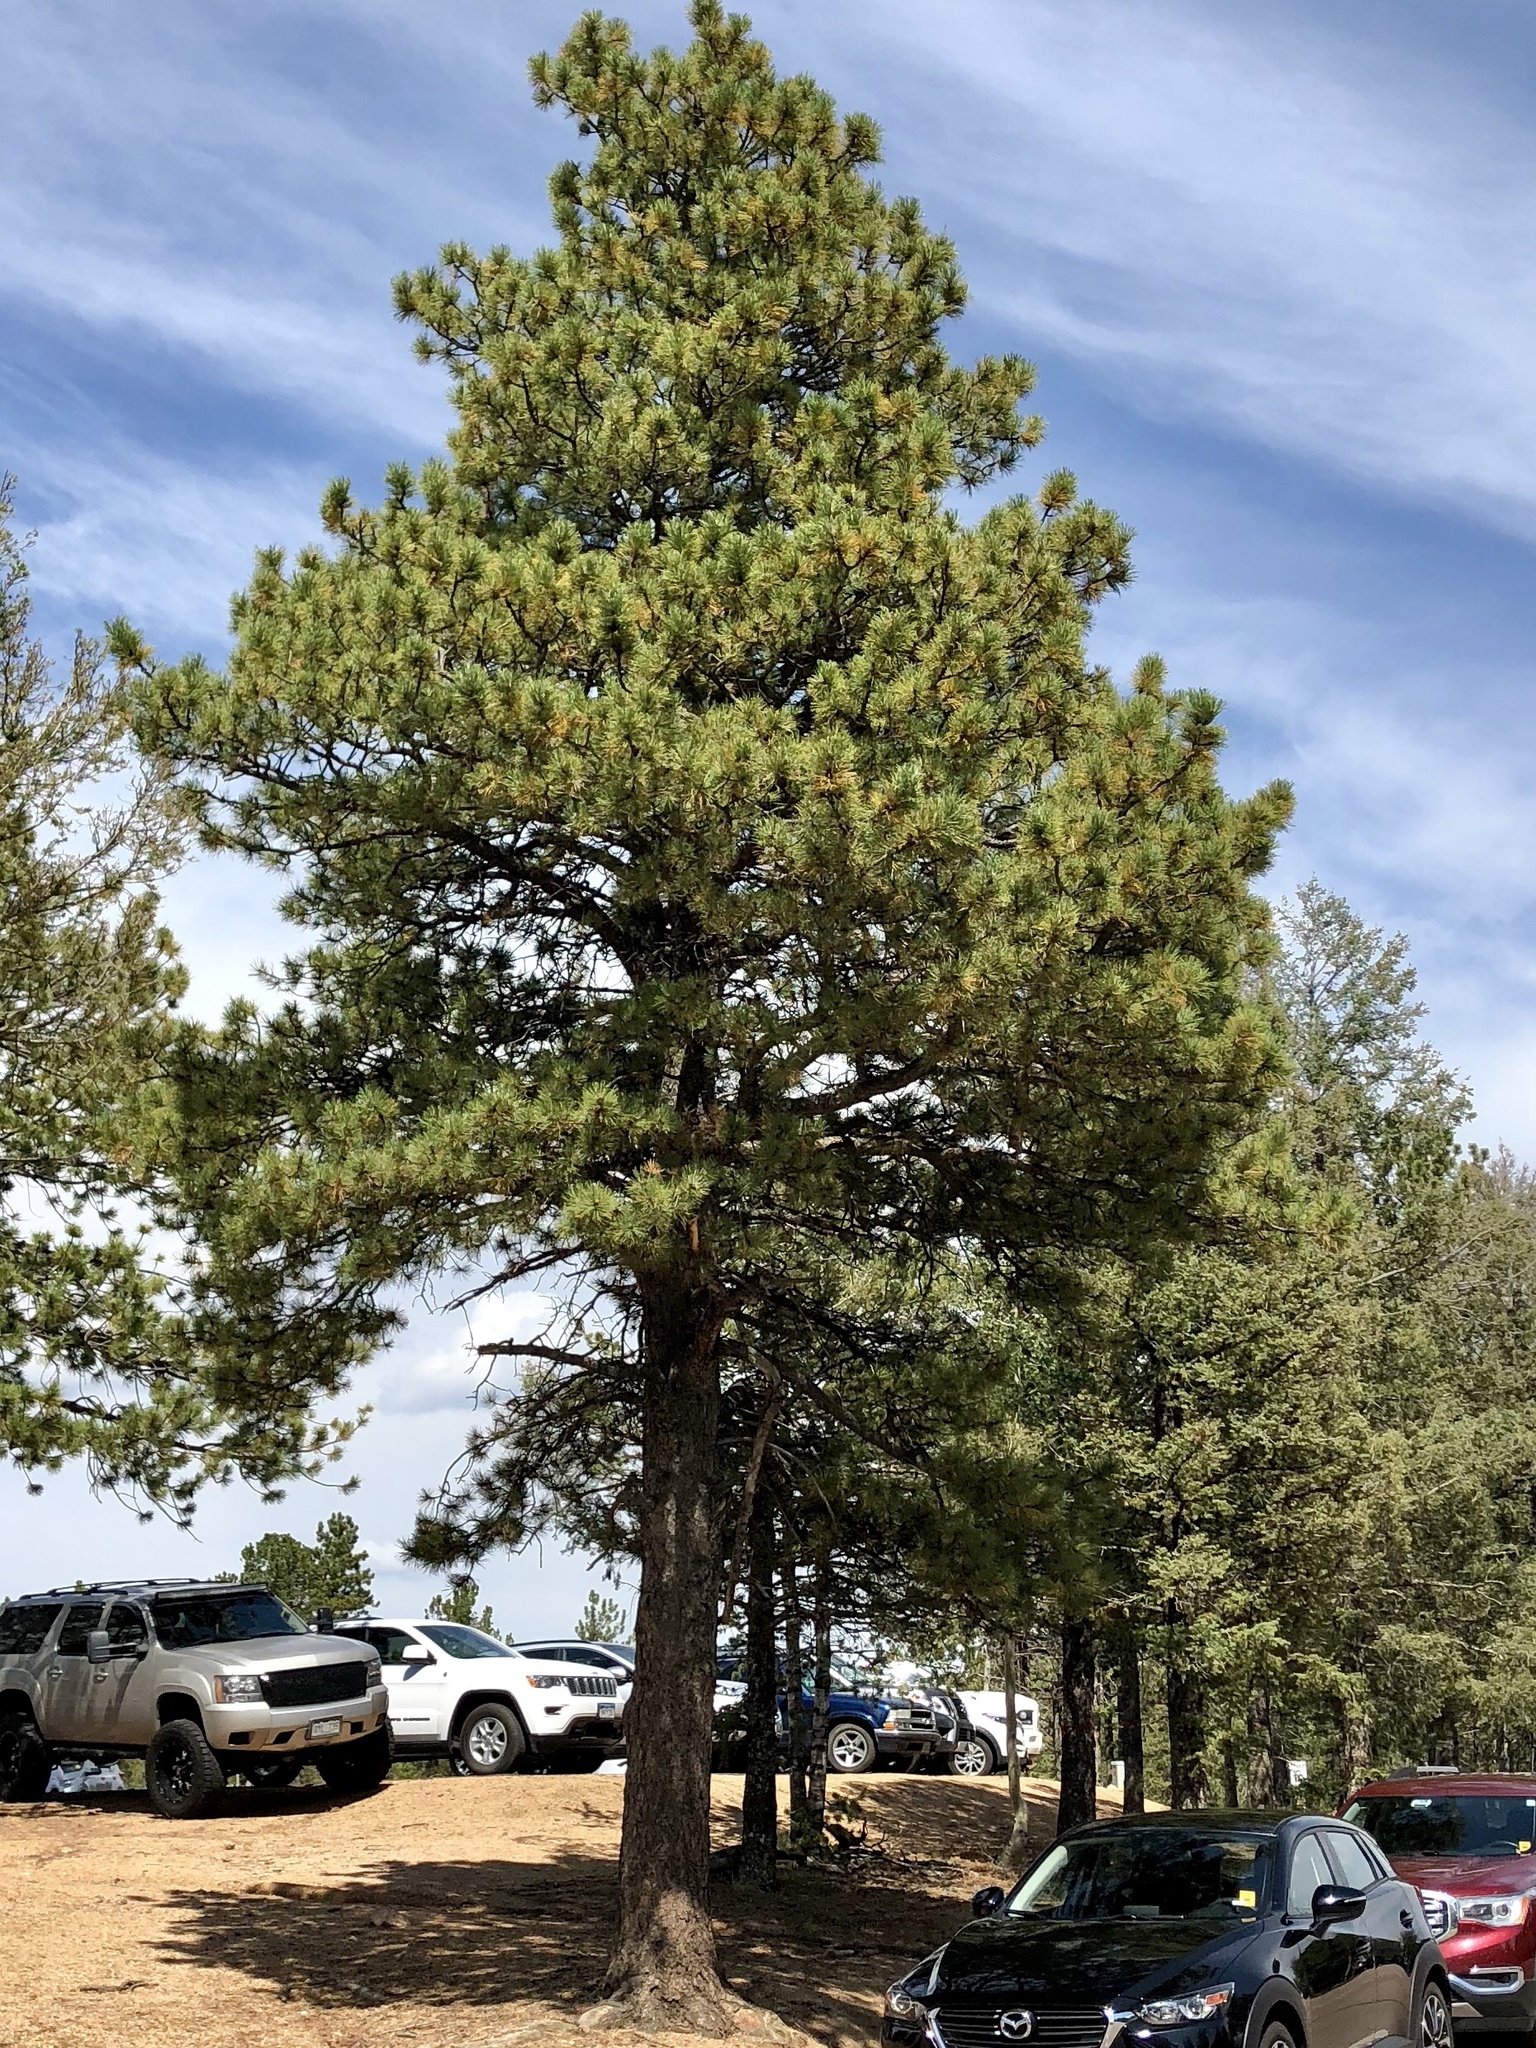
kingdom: Plantae
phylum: Tracheophyta
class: Pinopsida
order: Pinales
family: Pinaceae
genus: Pinus
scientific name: Pinus ponderosa
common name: Western yellow-pine
